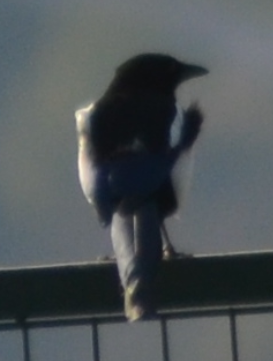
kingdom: Animalia
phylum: Chordata
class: Aves
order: Passeriformes
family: Corvidae
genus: Pica
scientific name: Pica pica
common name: Eurasian magpie
